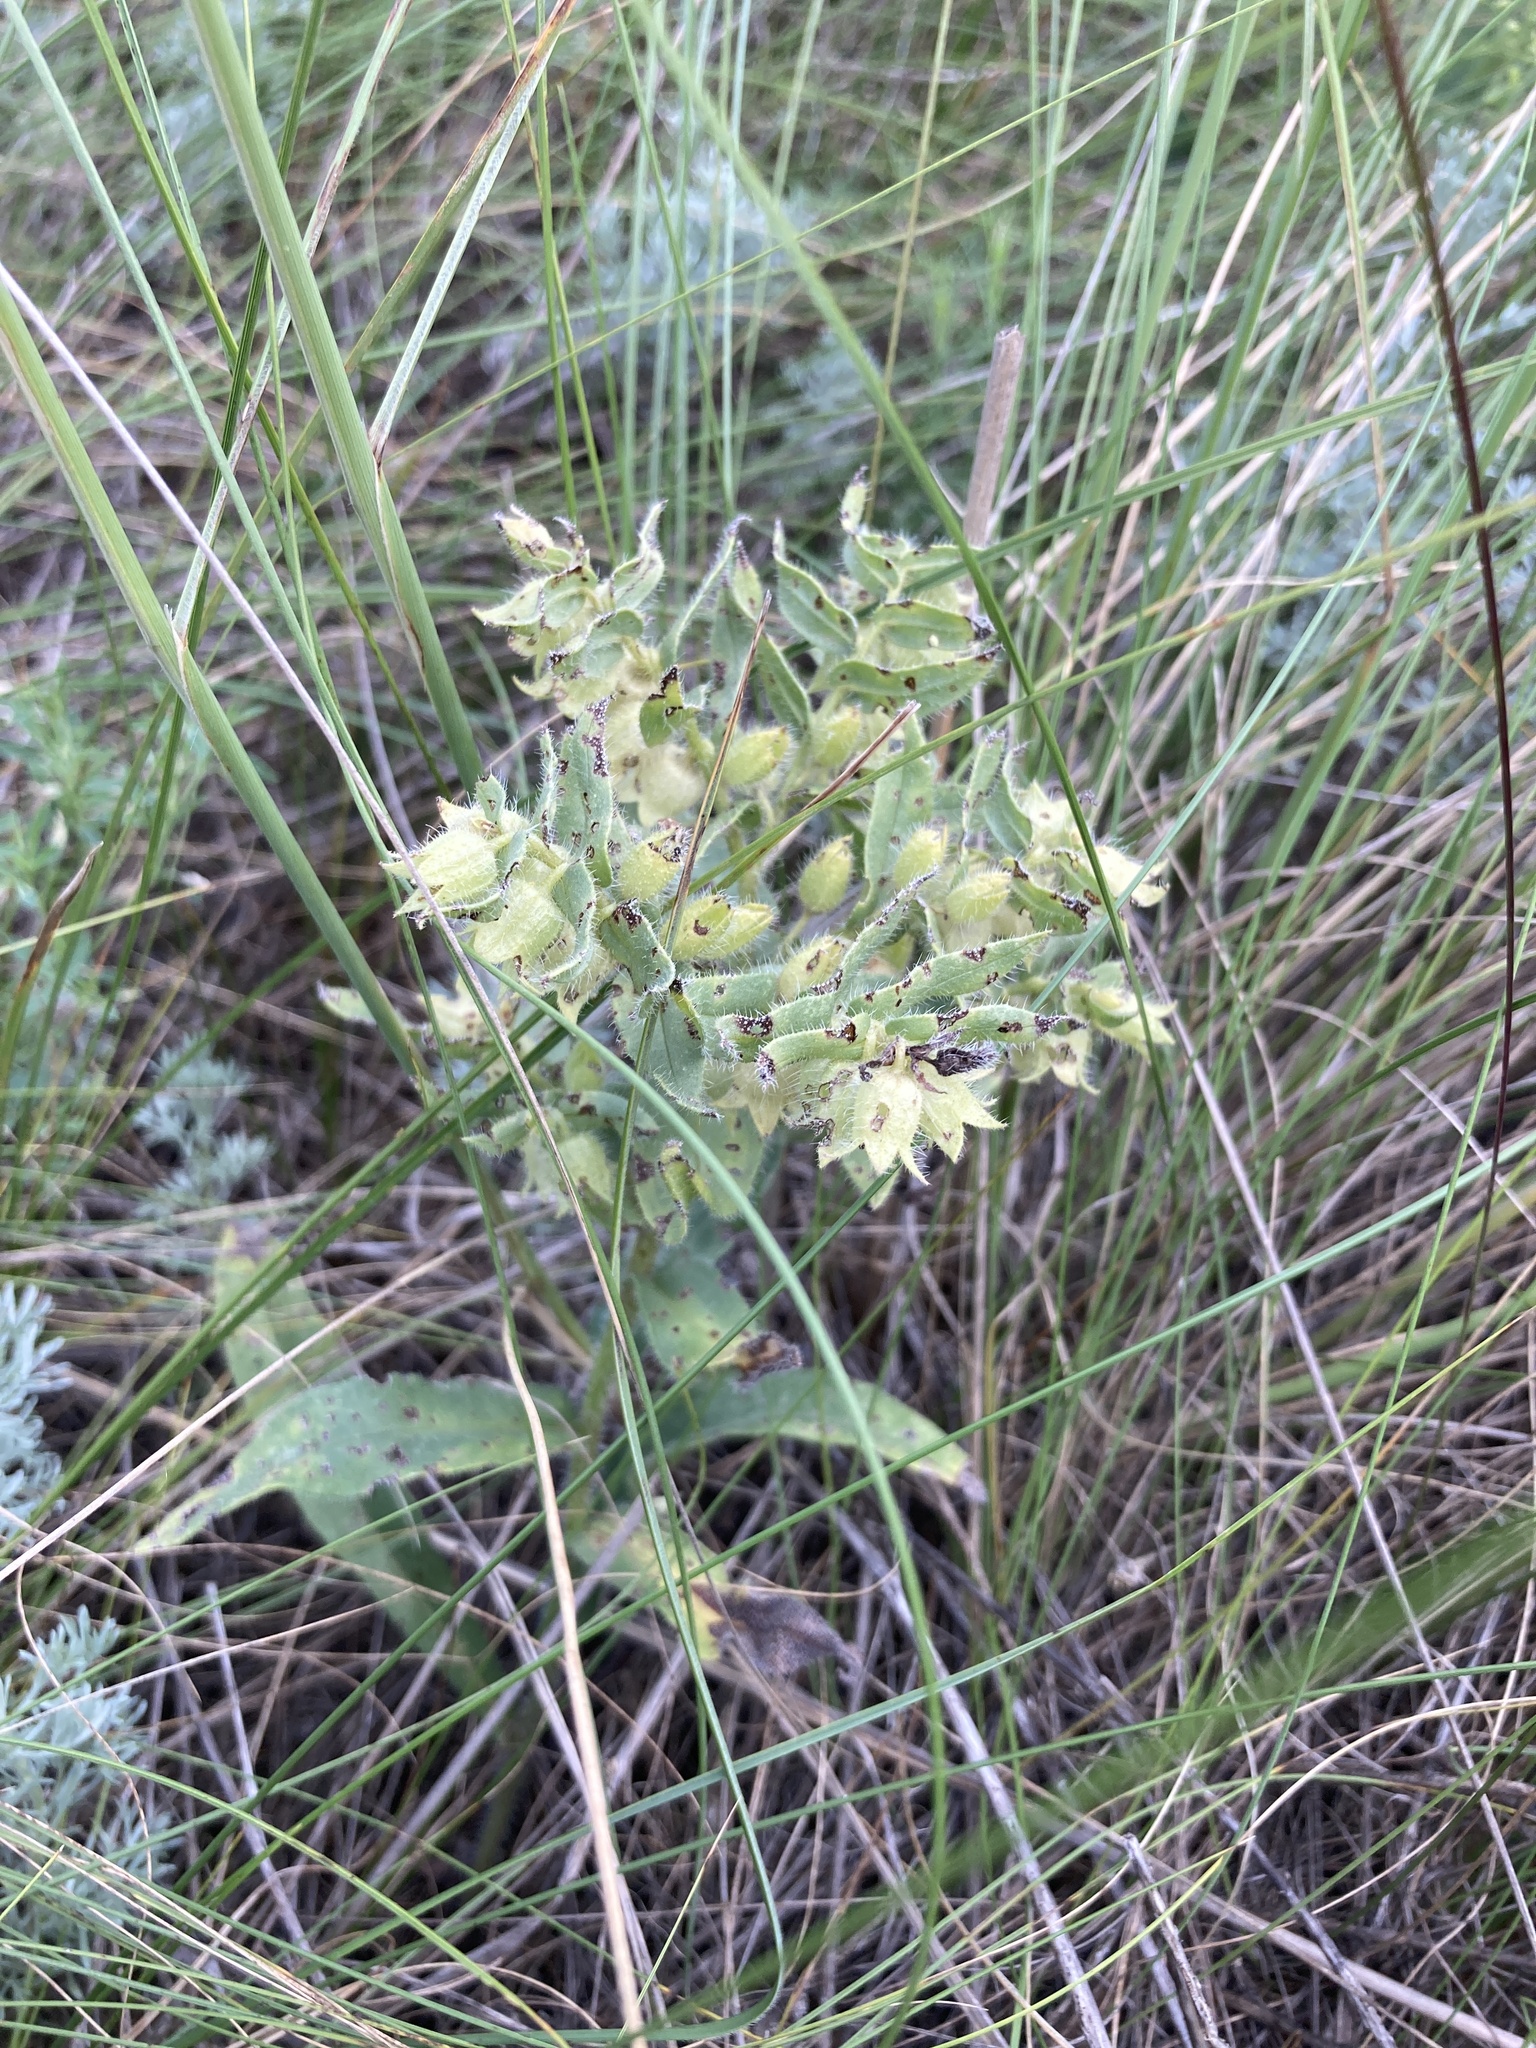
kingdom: Plantae
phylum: Tracheophyta
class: Magnoliopsida
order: Boraginales
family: Boraginaceae
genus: Nonea
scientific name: Nonea pulla
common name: Brown nonea
